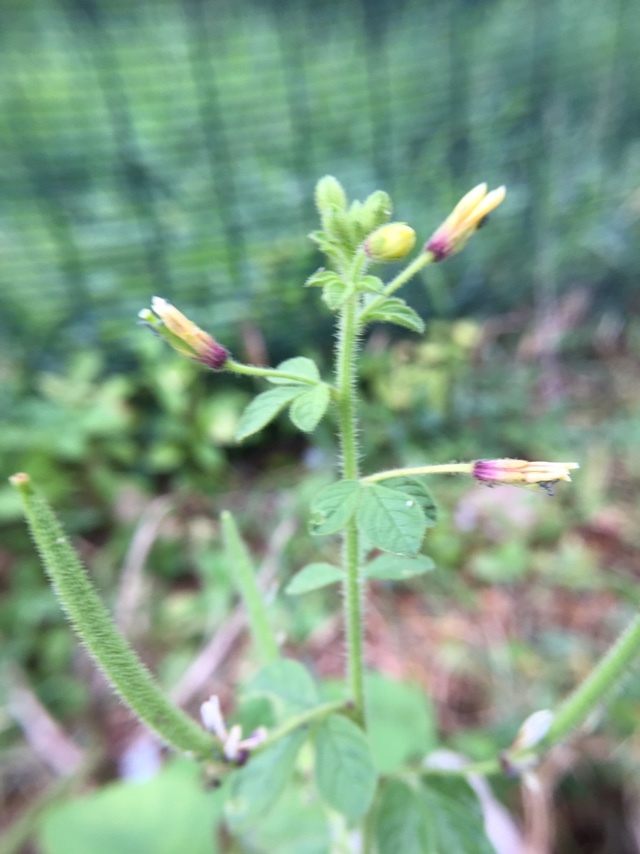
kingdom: Plantae
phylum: Tracheophyta
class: Magnoliopsida
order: Brassicales
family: Cleomaceae
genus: Arivela
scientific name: Arivela viscosa
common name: Asian spiderflower
